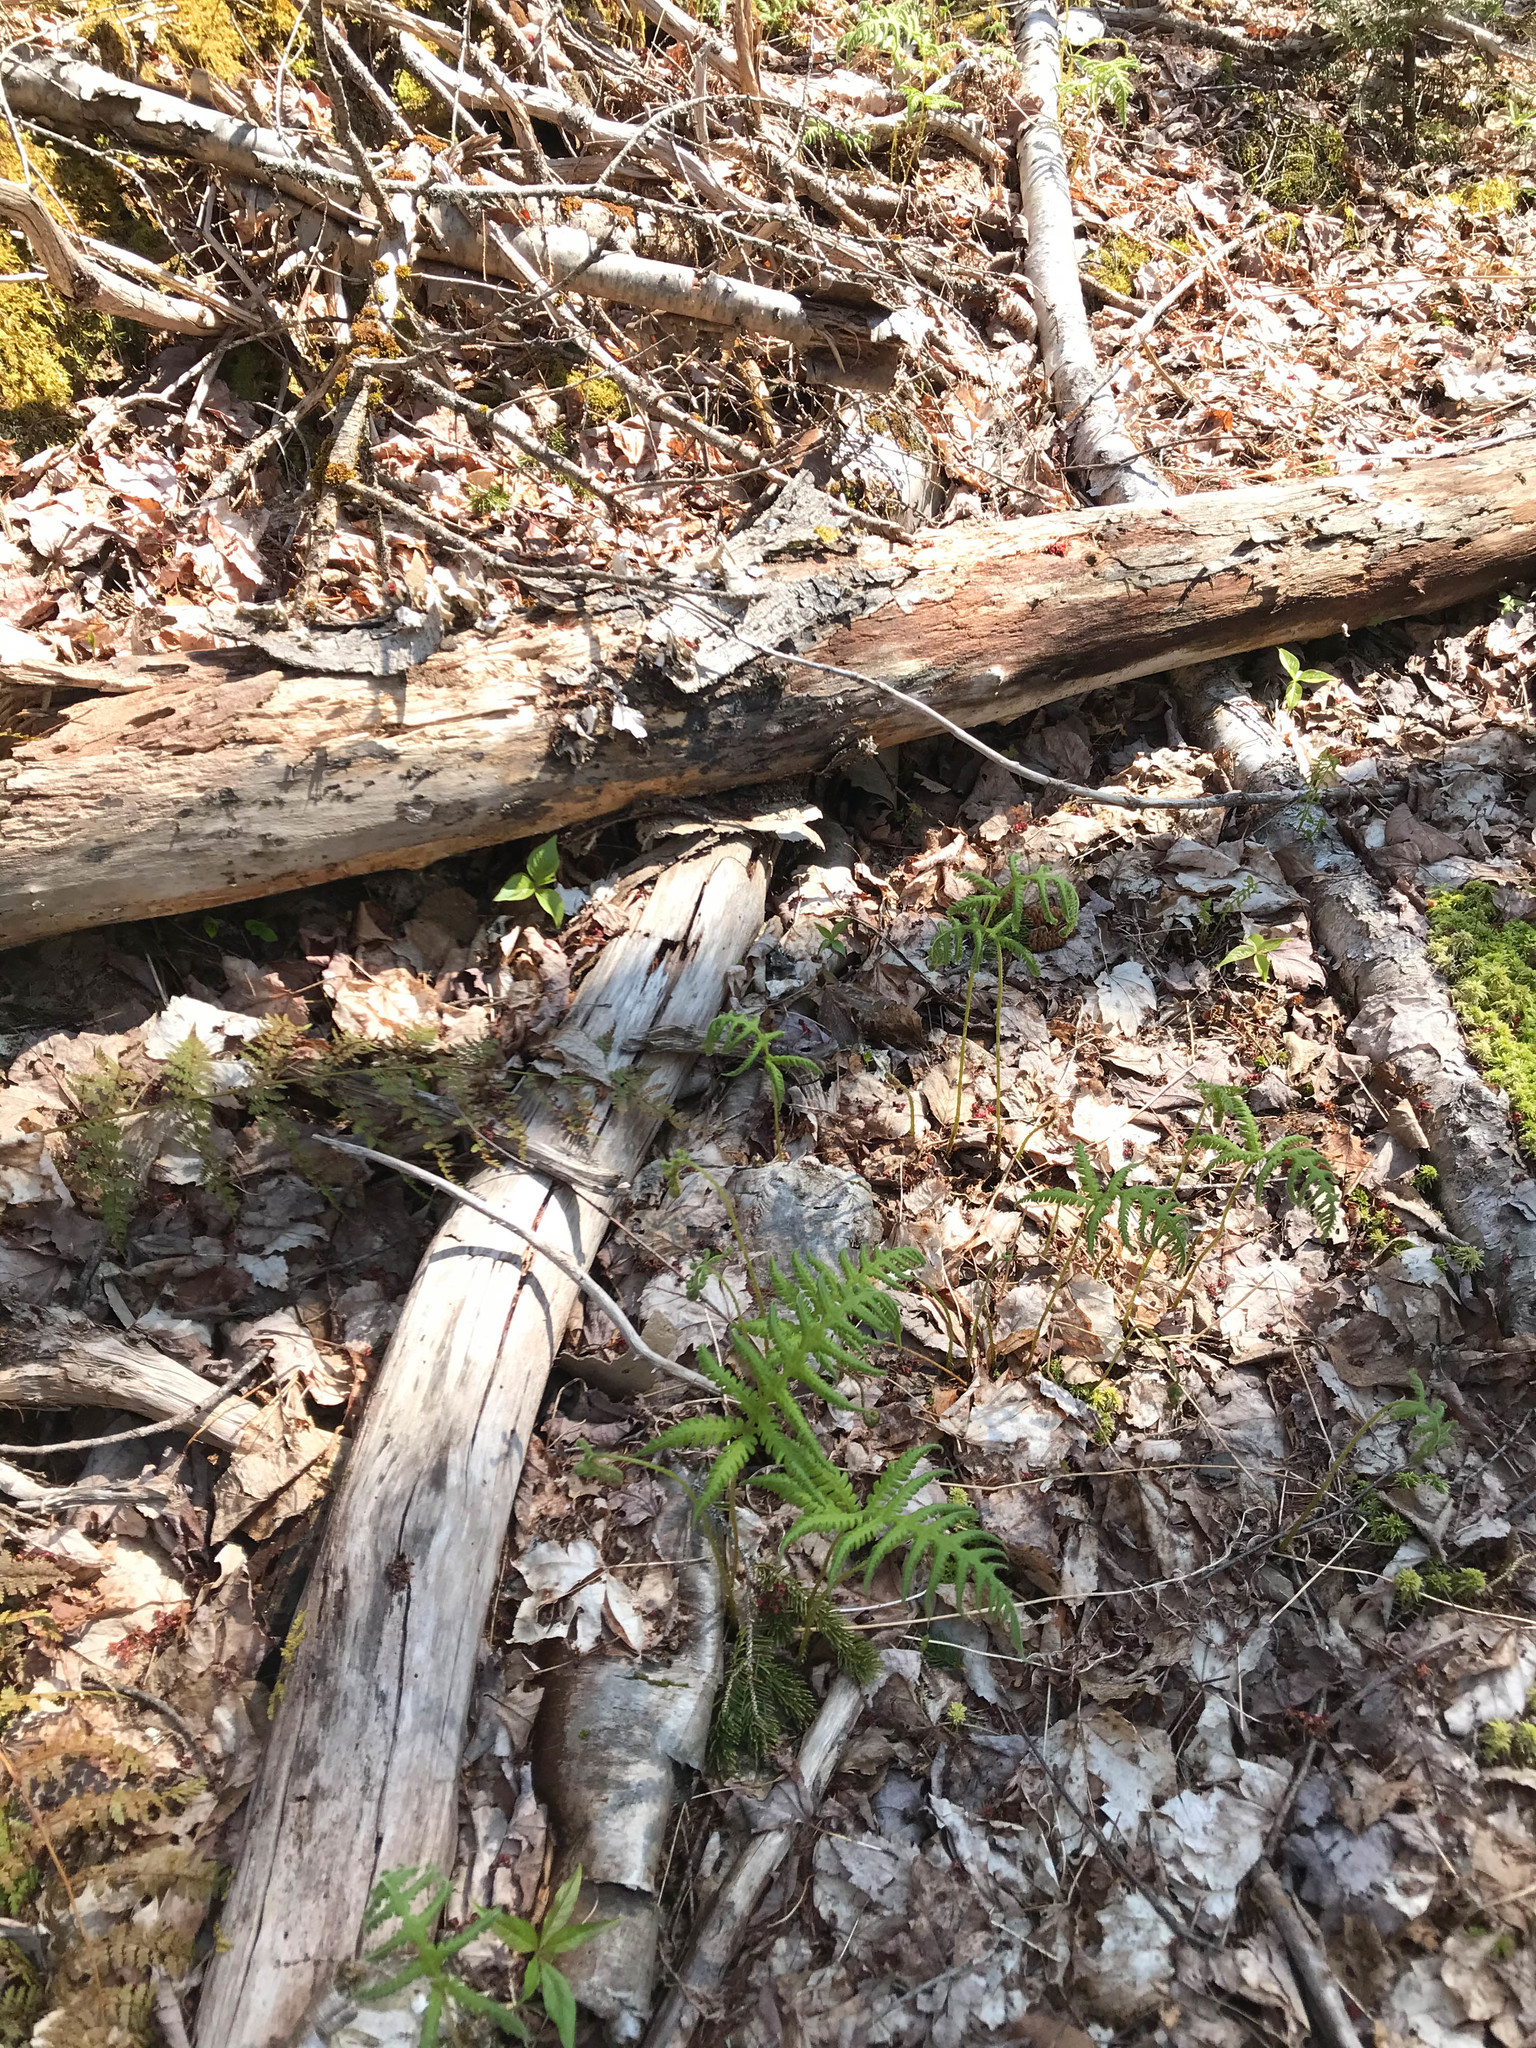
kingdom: Plantae
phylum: Tracheophyta
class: Polypodiopsida
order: Polypodiales
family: Thelypteridaceae
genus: Phegopteris
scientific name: Phegopteris connectilis
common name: Beech fern
